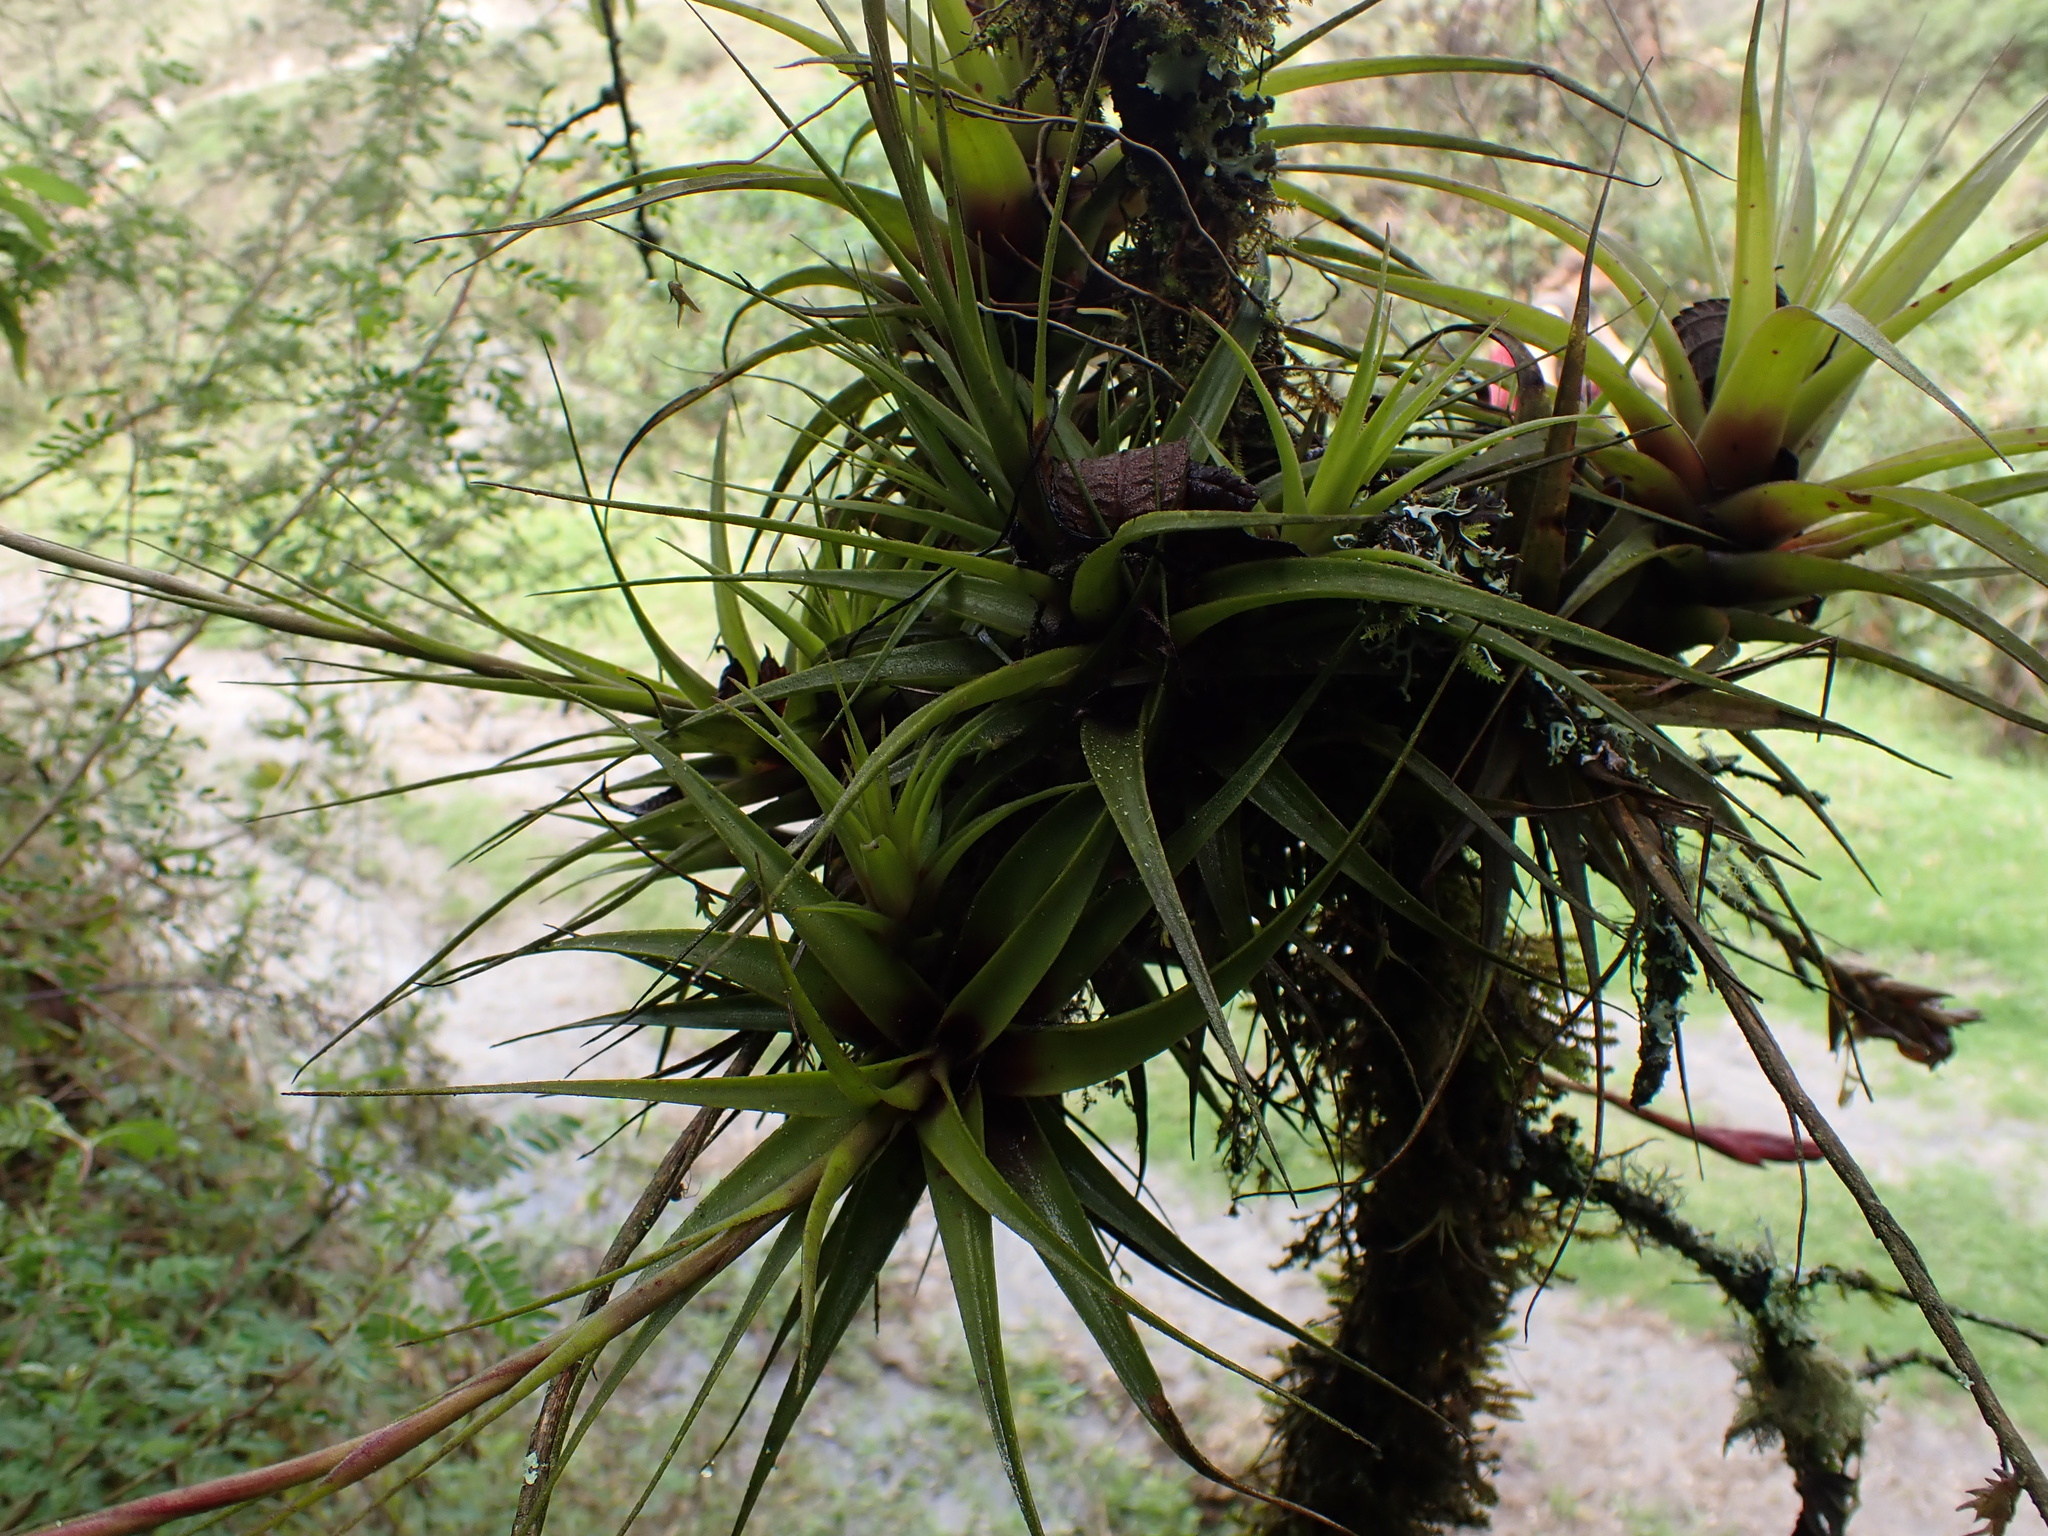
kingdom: Plantae
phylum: Tracheophyta
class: Liliopsida
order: Poales
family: Bromeliaceae
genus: Tillandsia
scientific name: Tillandsia incarnata
